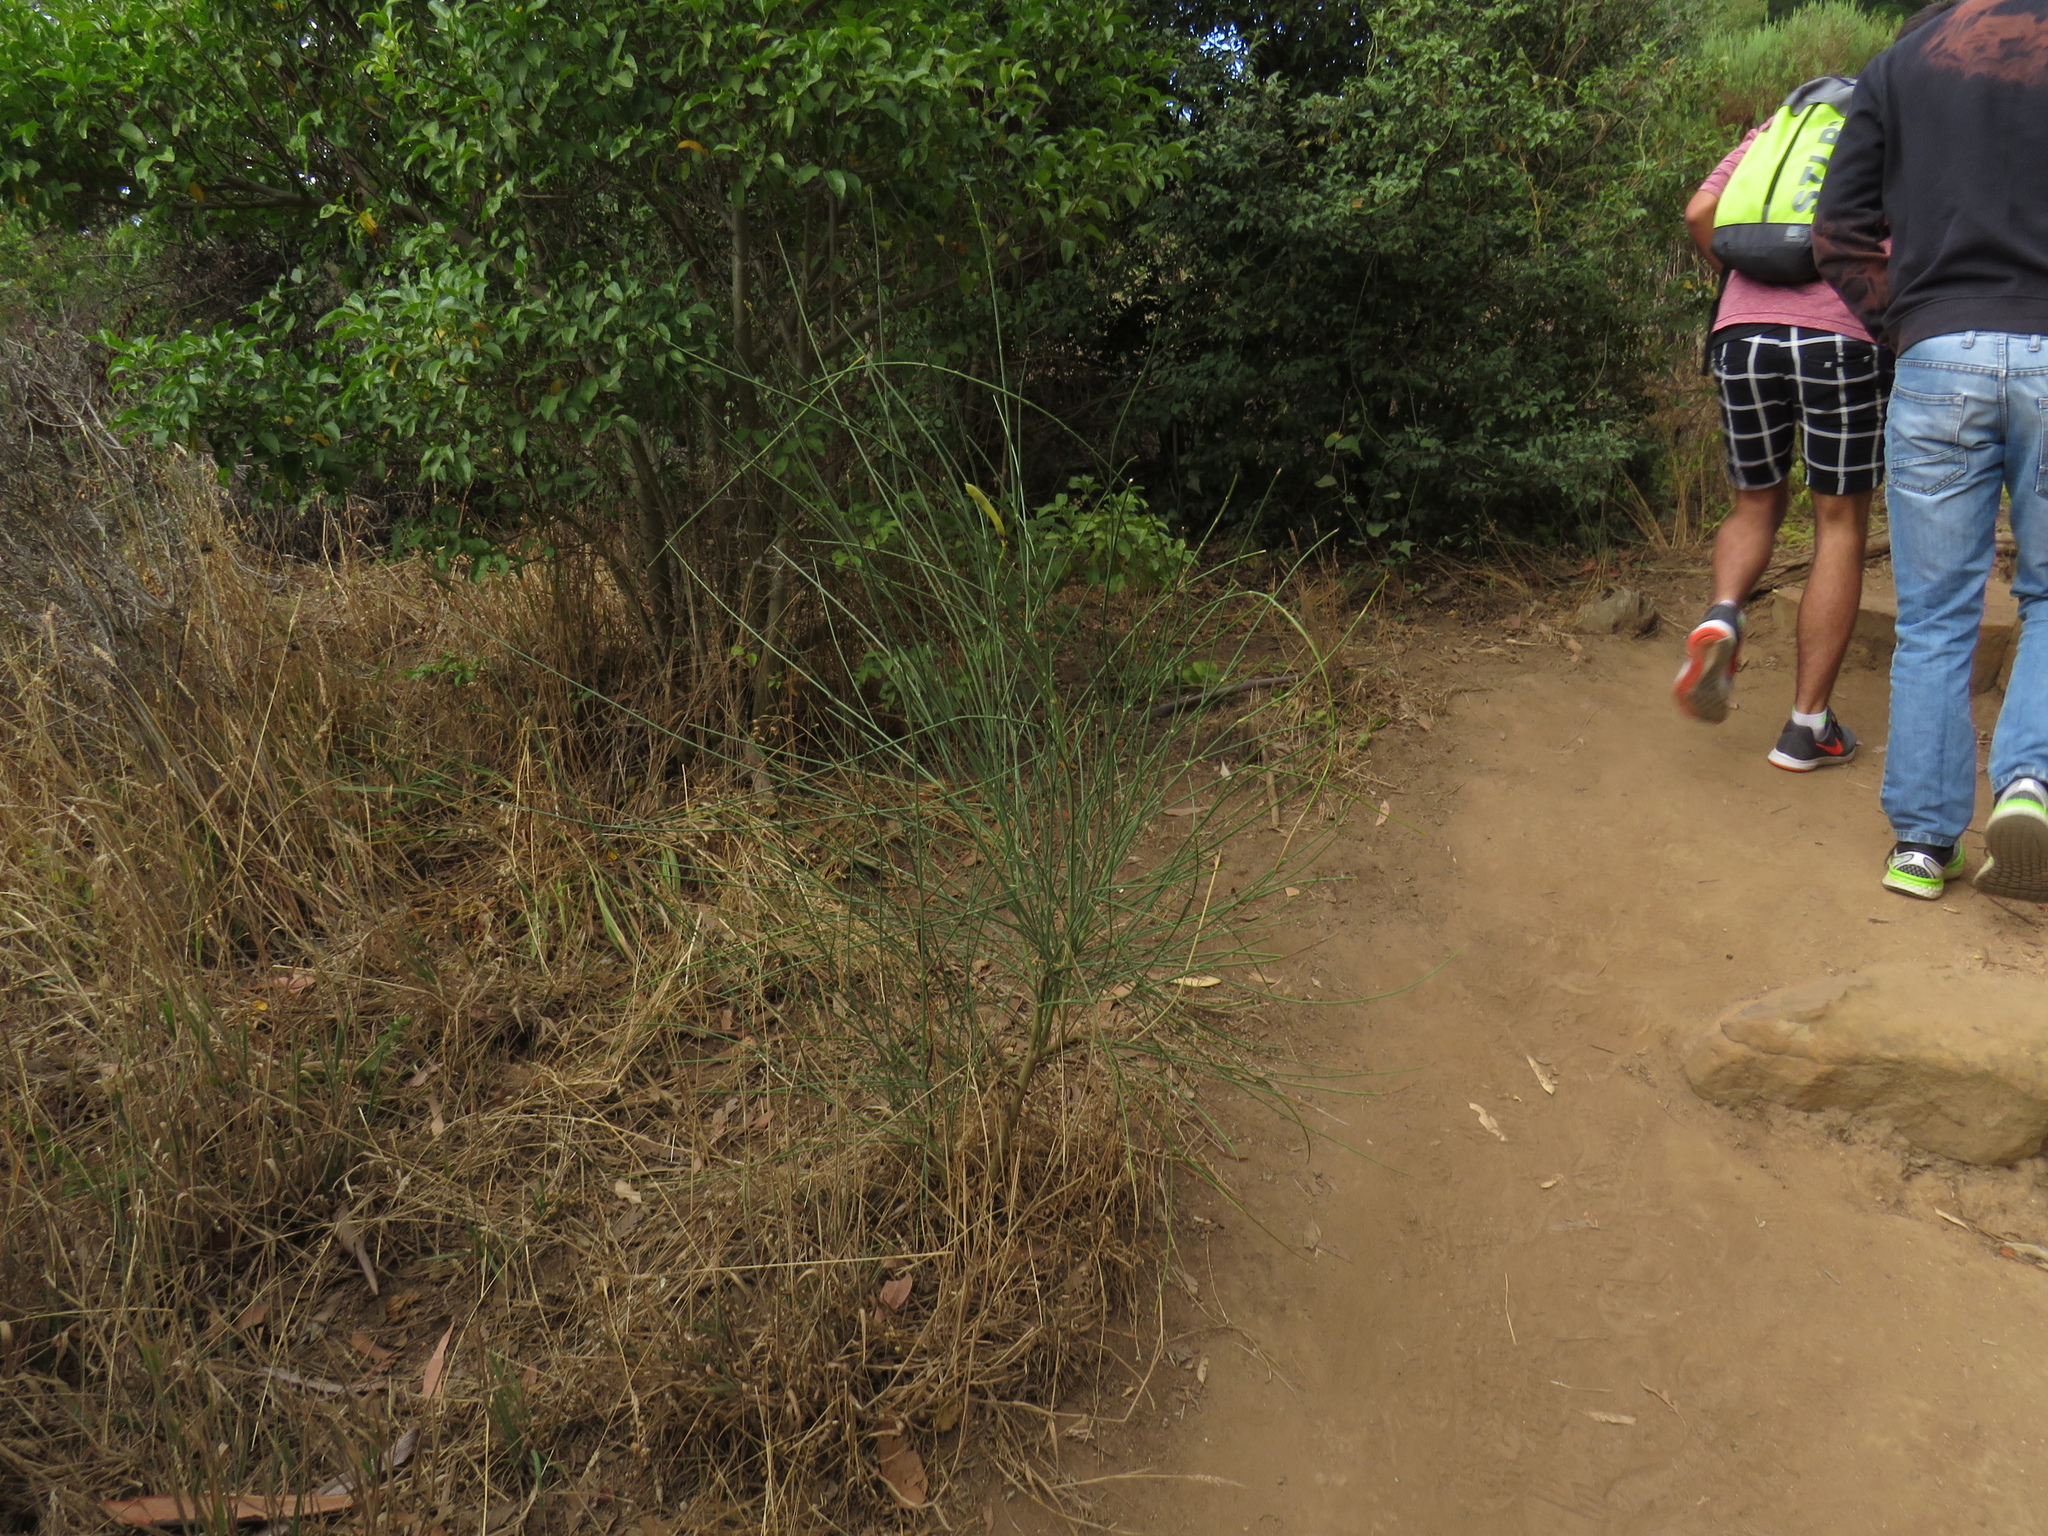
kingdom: Plantae
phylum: Tracheophyta
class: Magnoliopsida
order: Fabales
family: Fabaceae
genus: Spartium
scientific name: Spartium junceum
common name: Spanish broom
